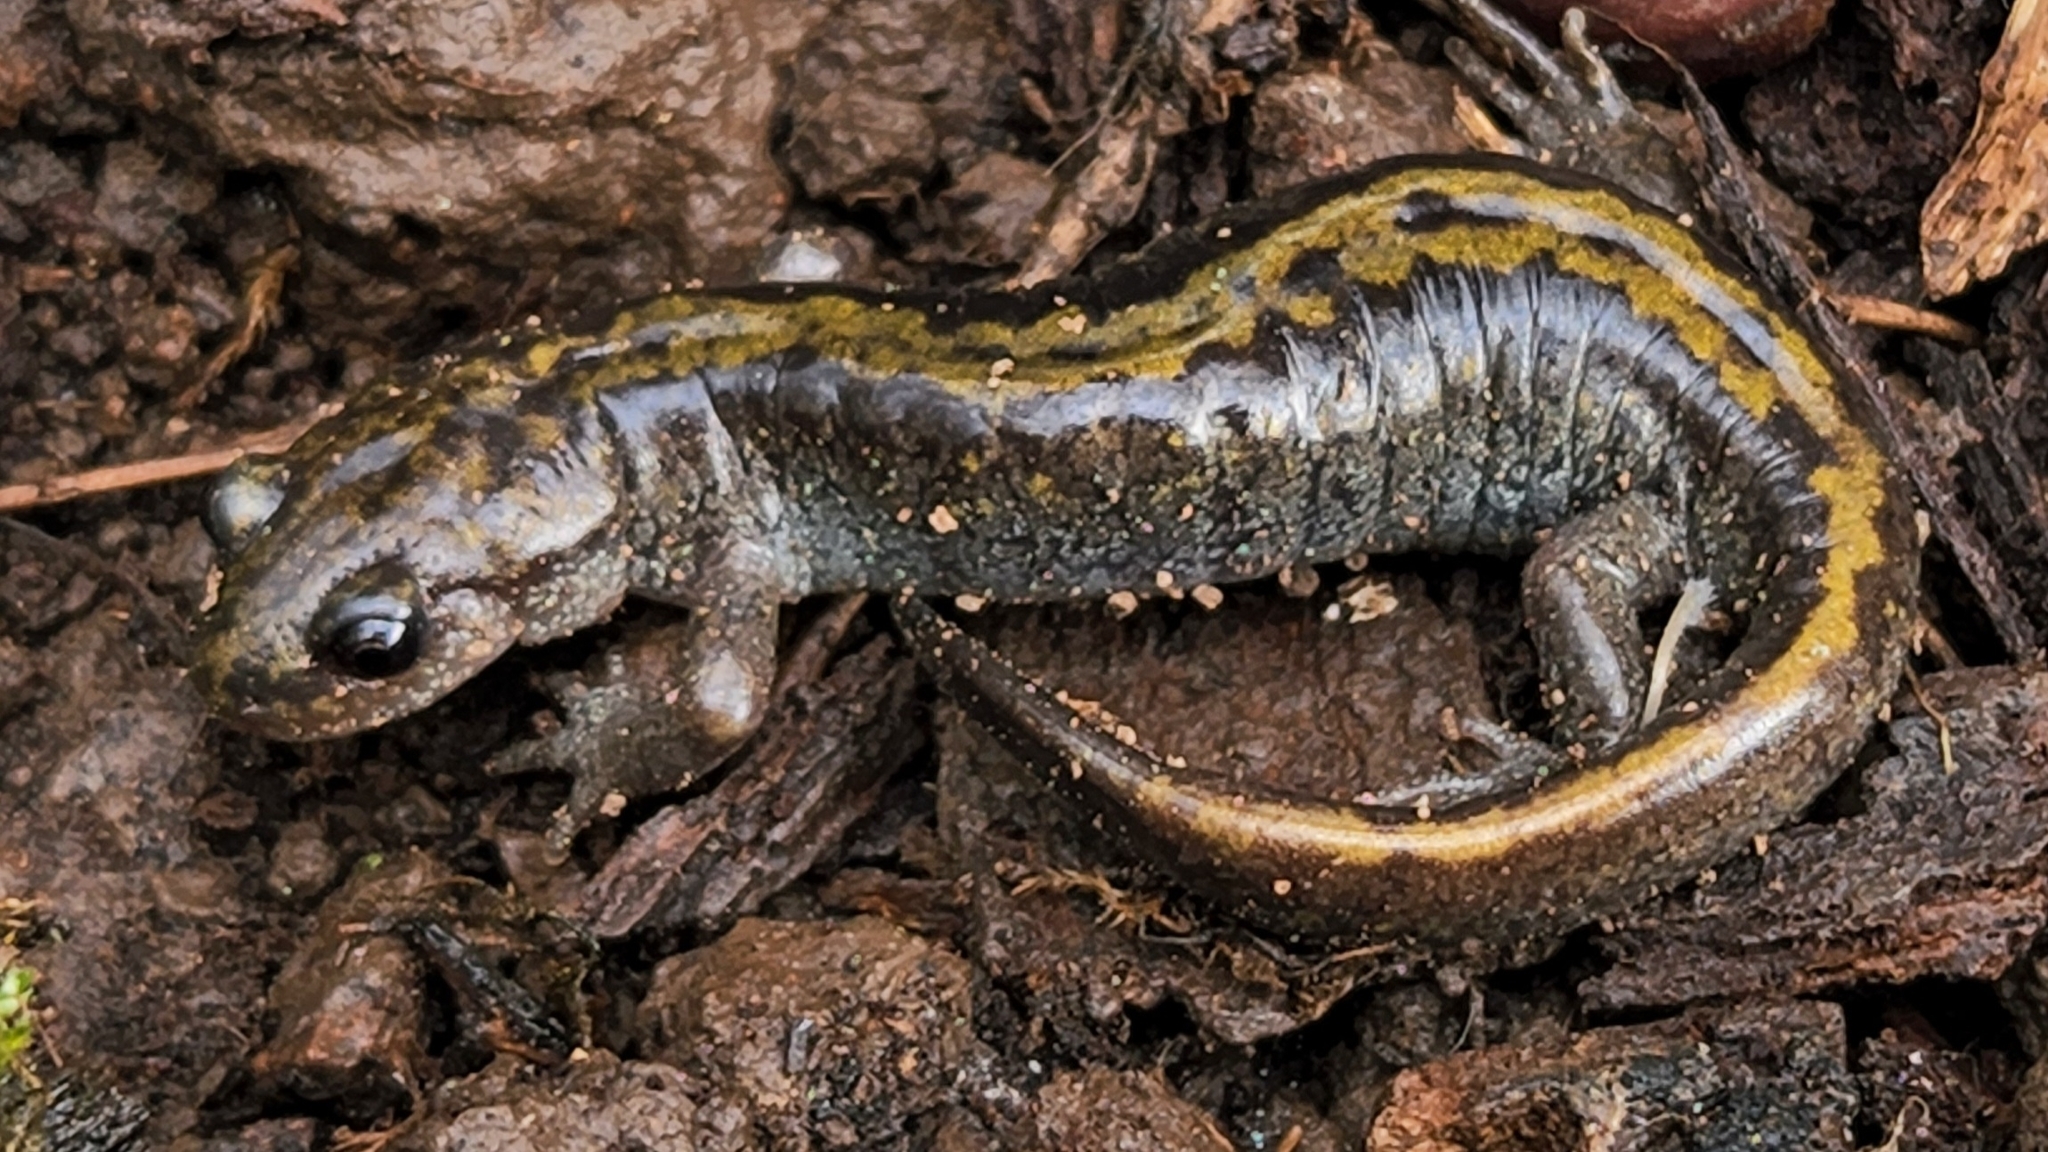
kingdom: Animalia
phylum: Chordata
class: Amphibia
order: Caudata
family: Ambystomatidae
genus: Ambystoma
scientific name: Ambystoma macrodactylum
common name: Long-toed salamander
